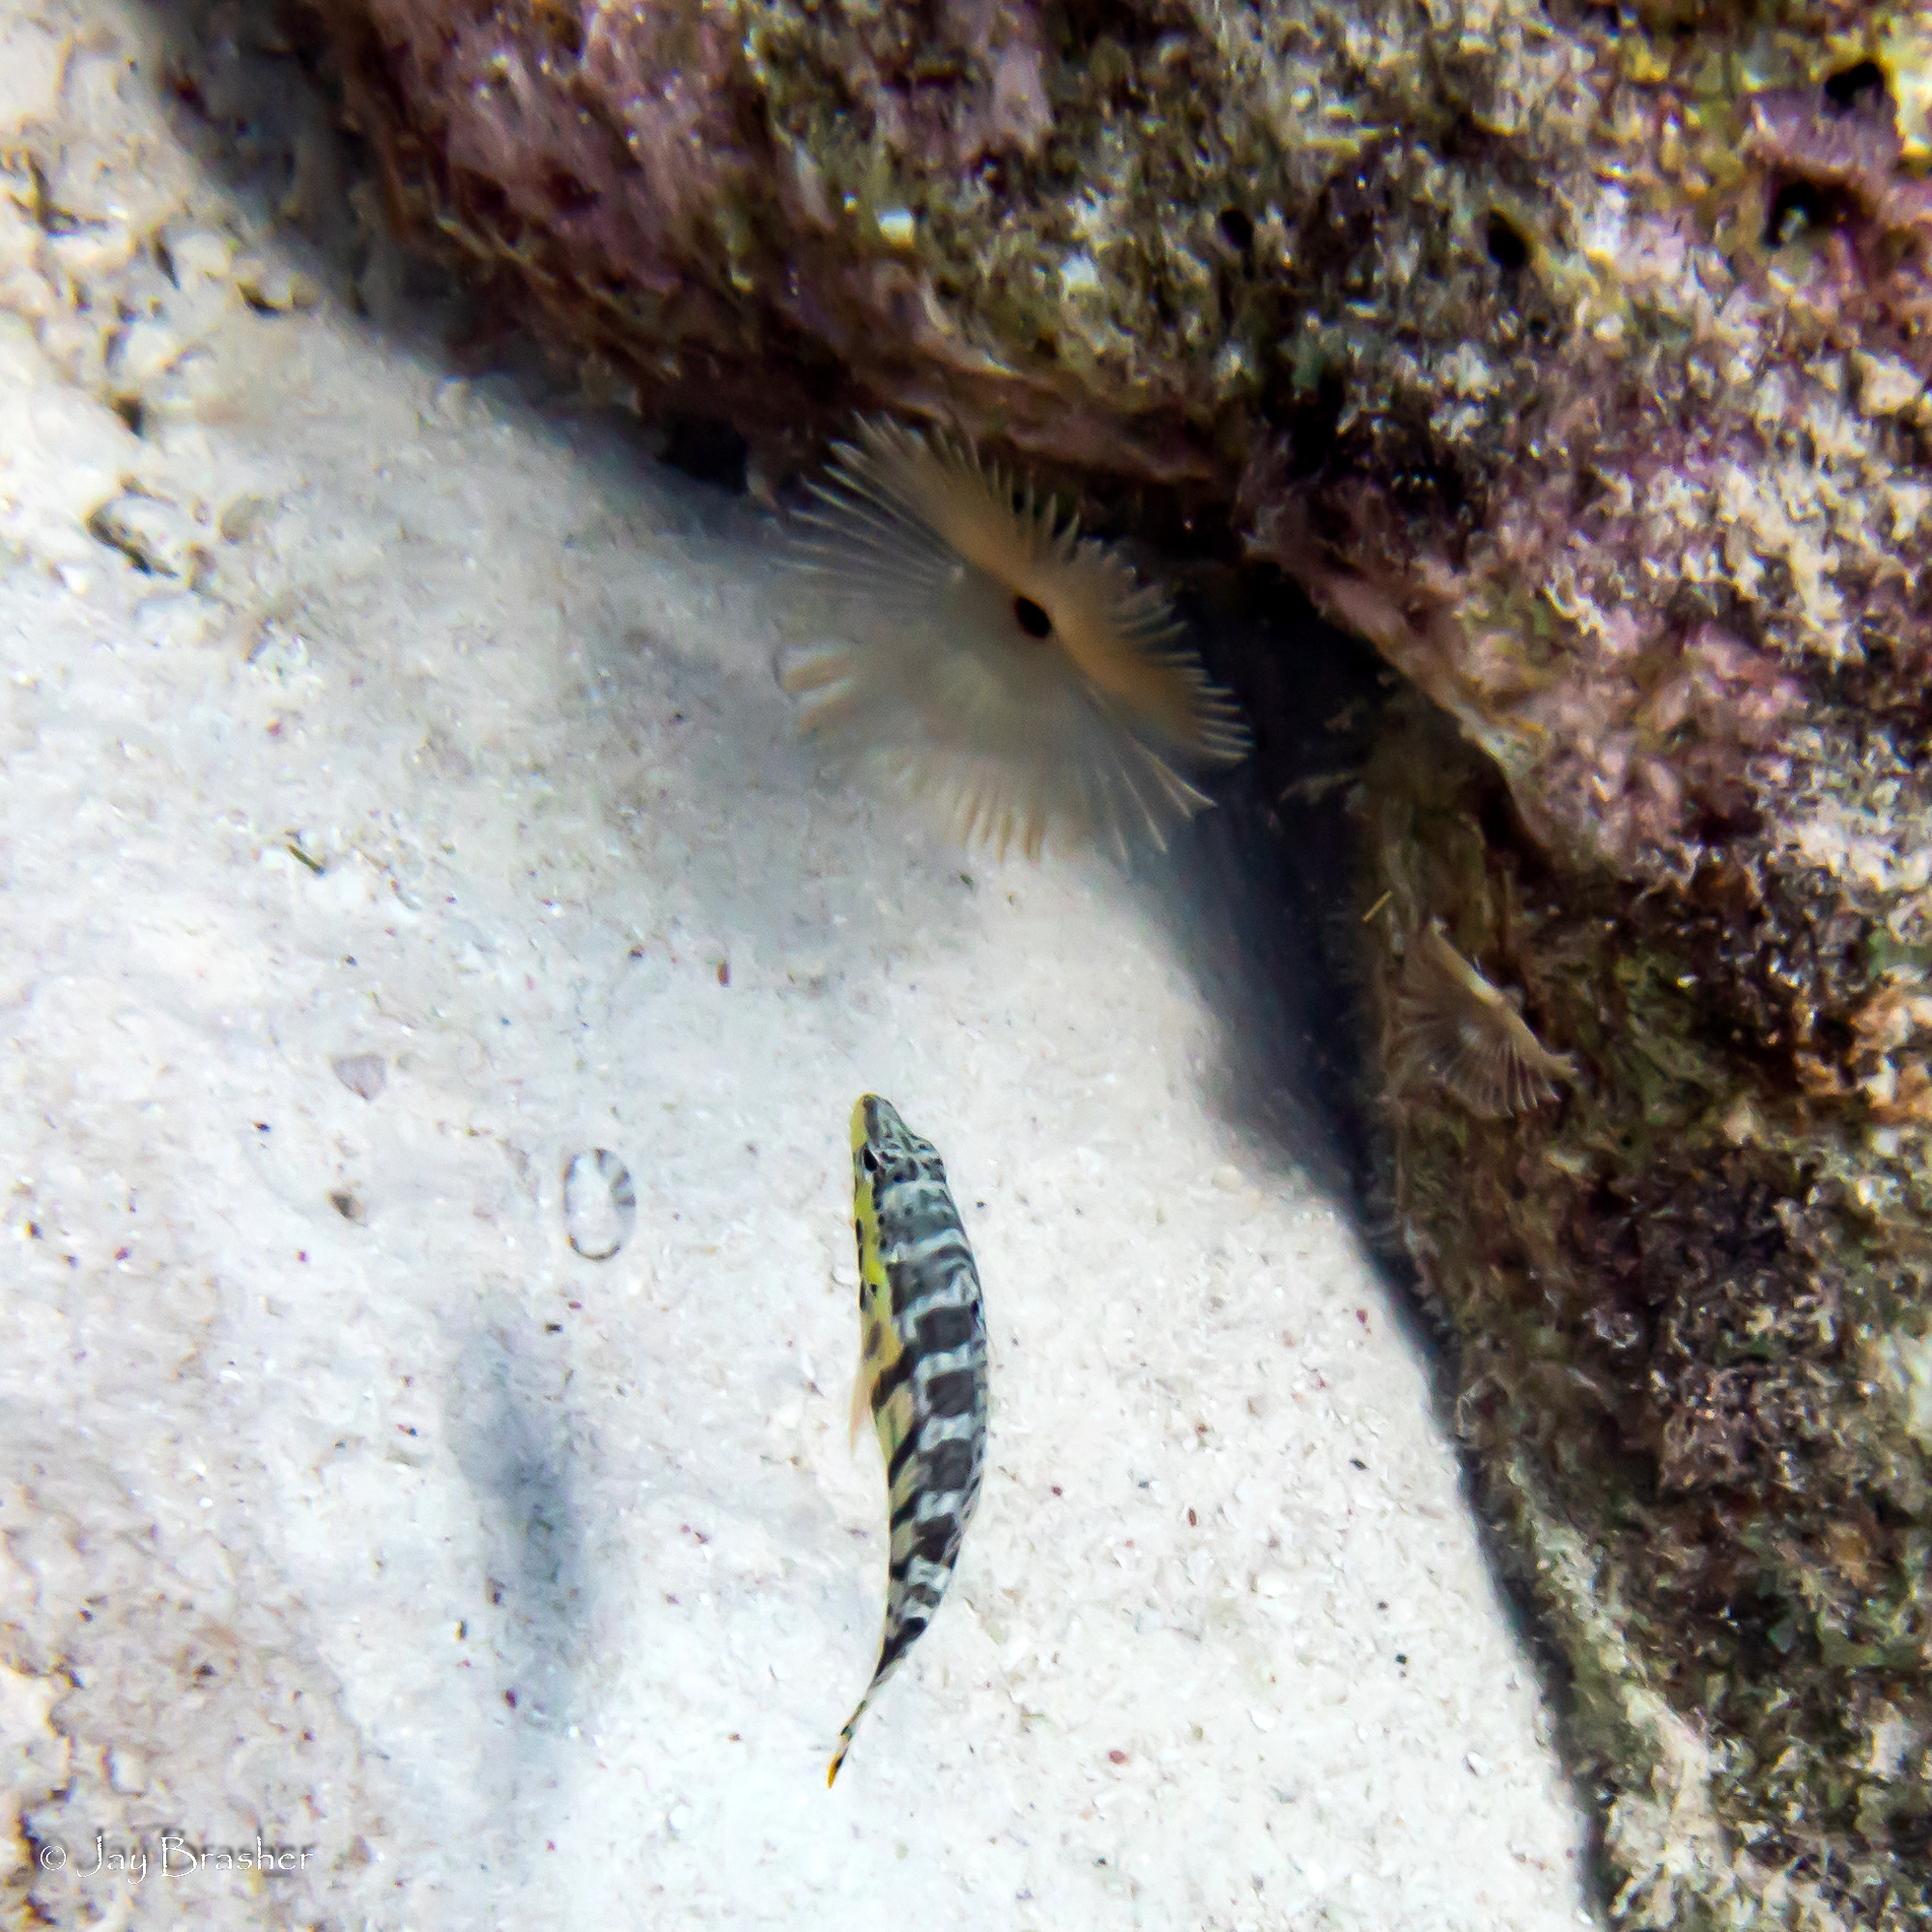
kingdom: Animalia
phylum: Chordata
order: Perciformes
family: Serranidae
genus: Serranus
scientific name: Serranus tigrinus
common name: Harlequin bass
